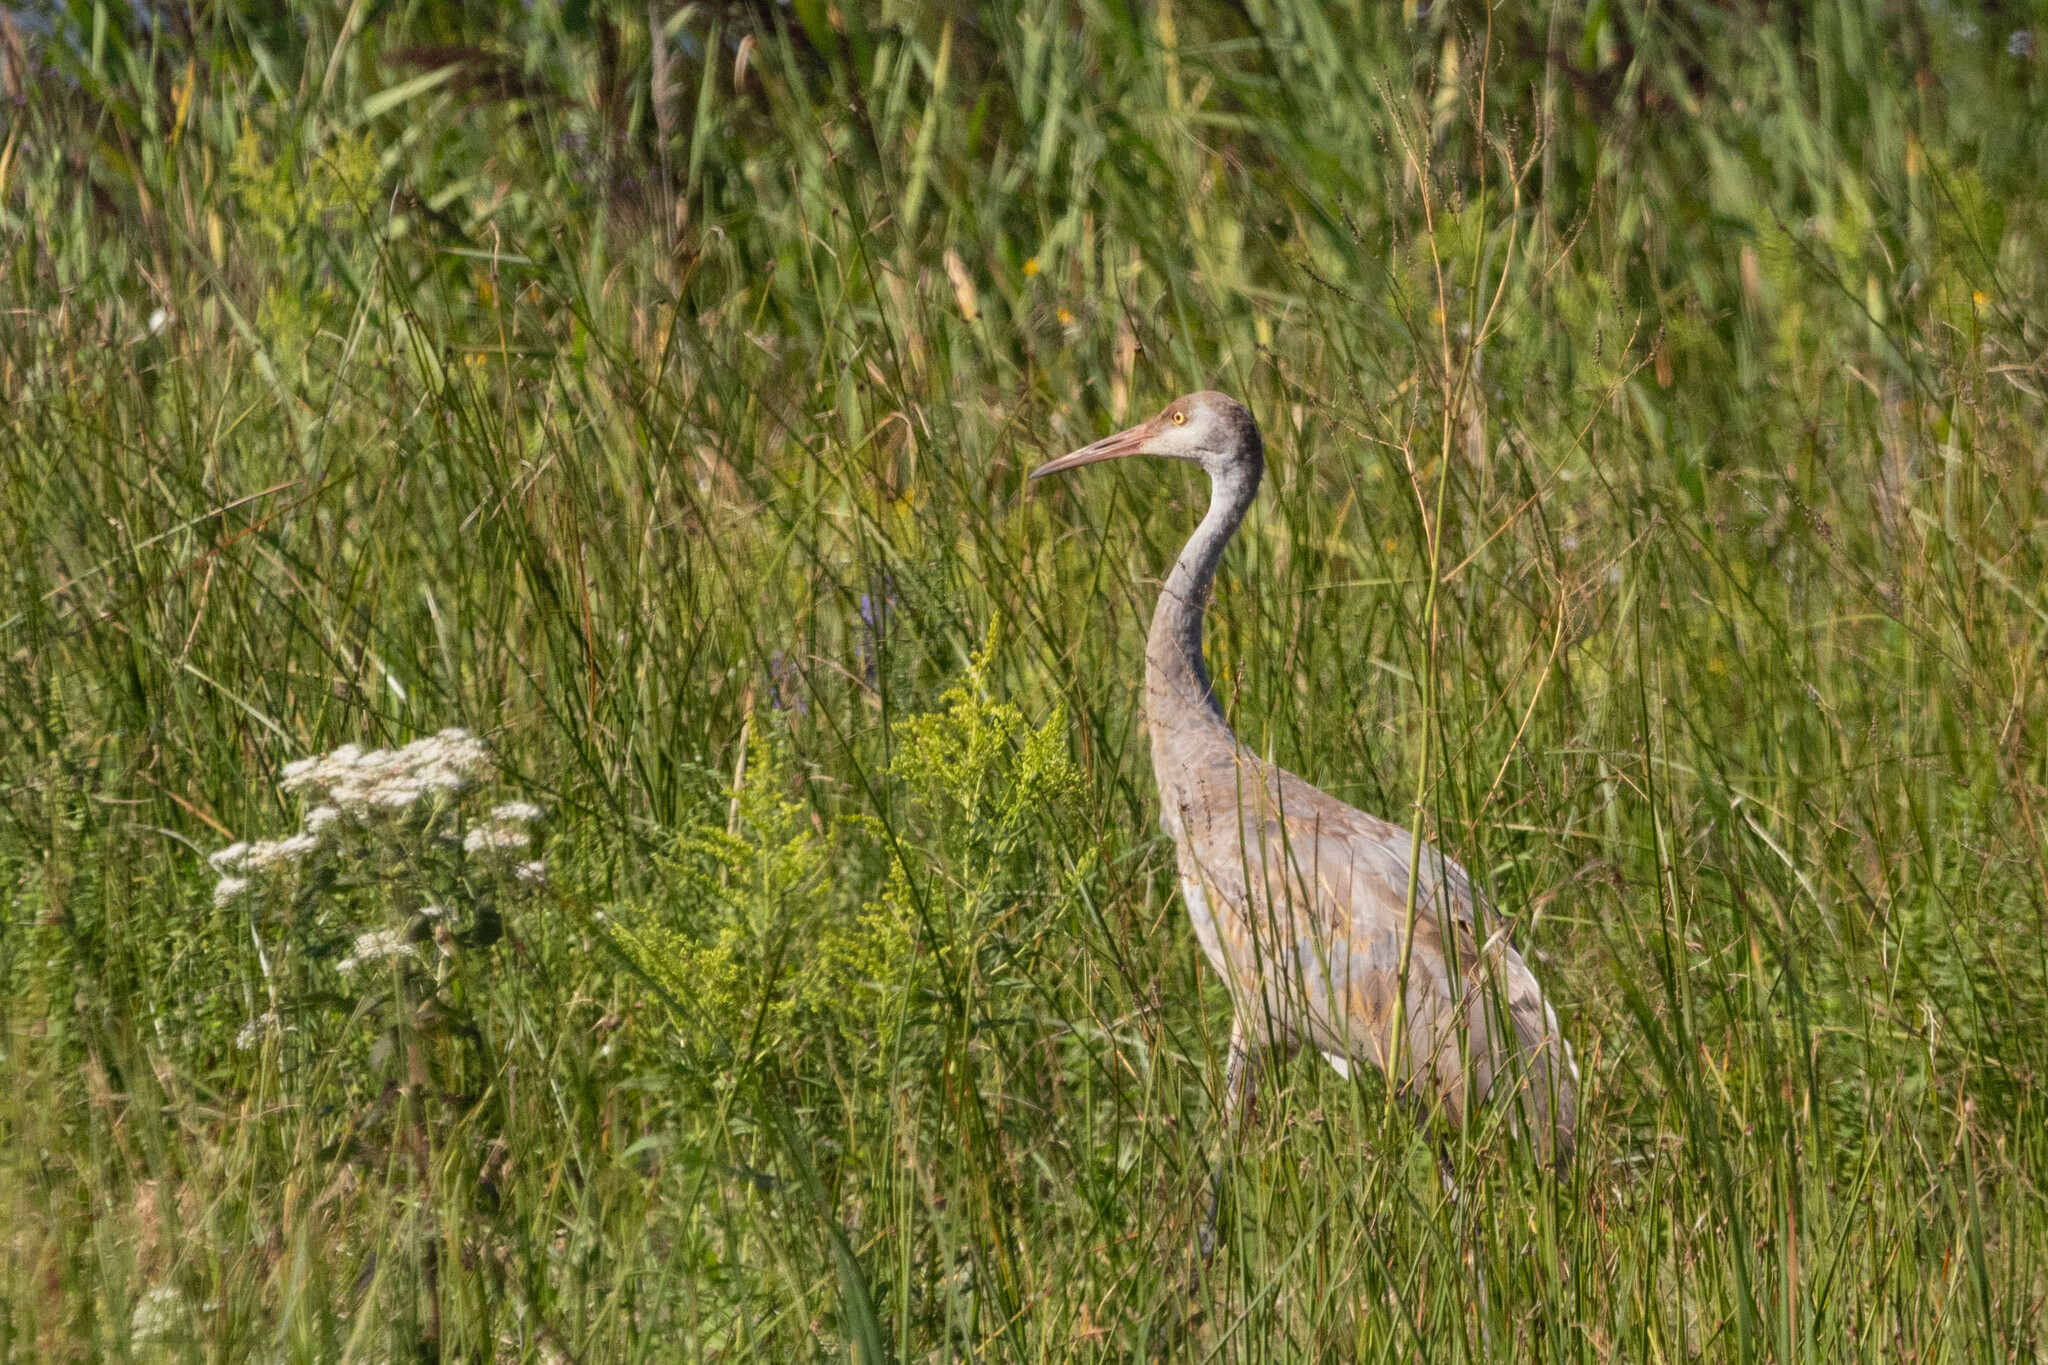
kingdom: Animalia
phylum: Chordata
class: Aves
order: Gruiformes
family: Gruidae
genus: Grus
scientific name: Grus canadensis
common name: Sandhill crane
